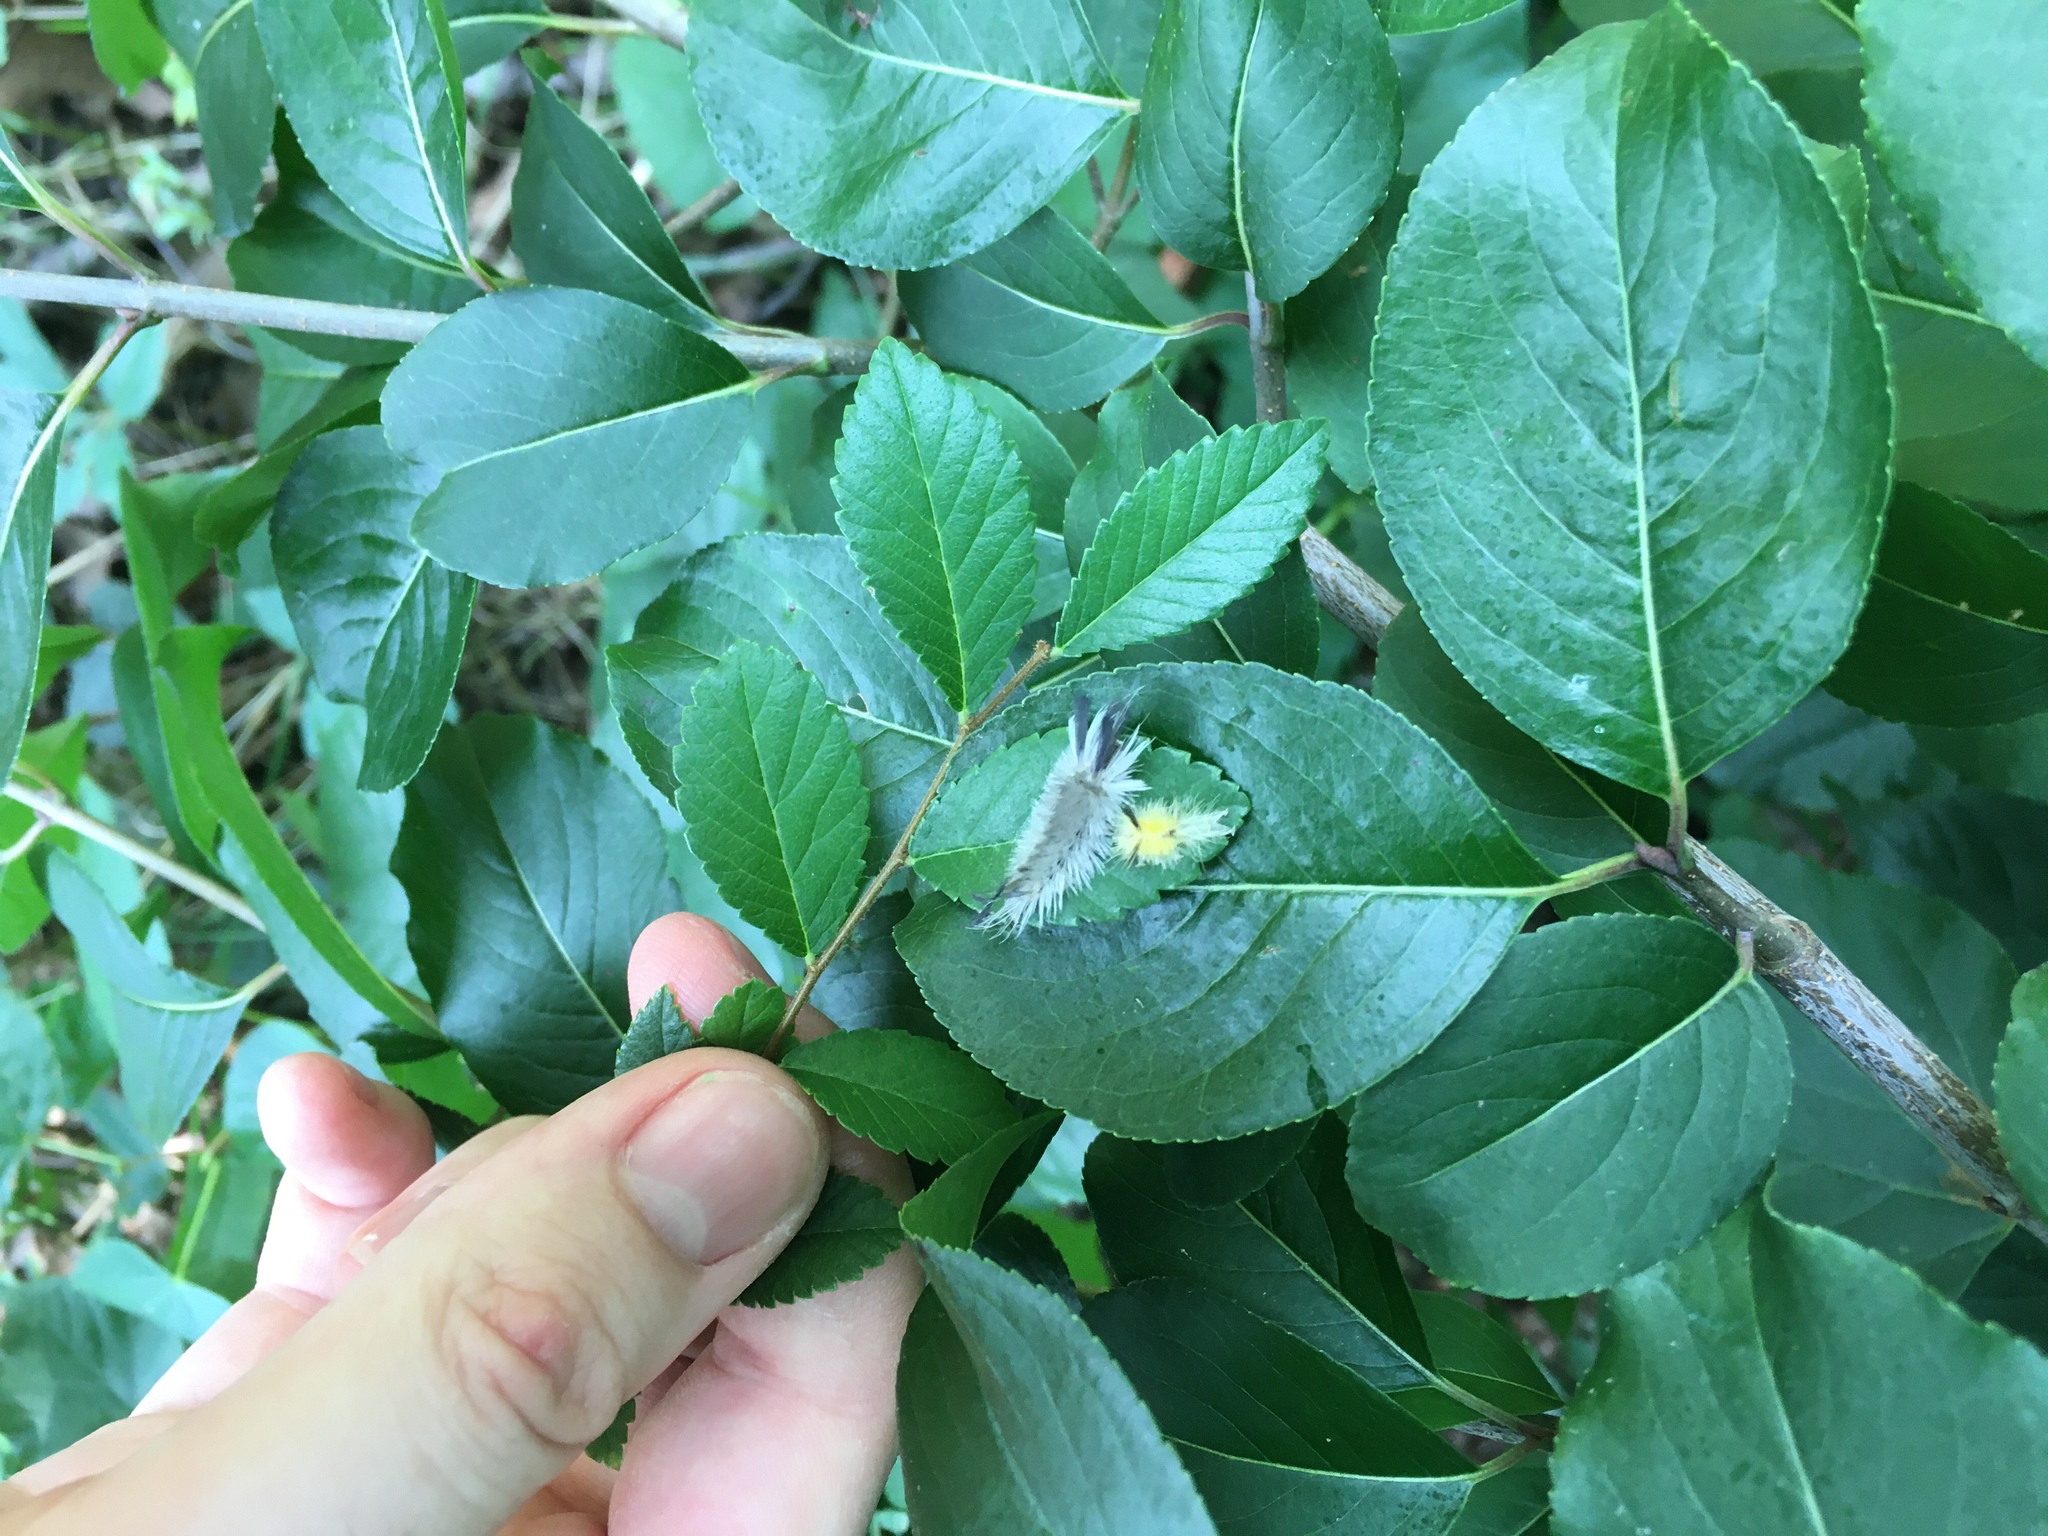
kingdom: Animalia
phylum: Arthropoda
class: Insecta
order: Lepidoptera
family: Erebidae
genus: Halysidota
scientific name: Halysidota tessellaris
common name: Banded tussock moth
